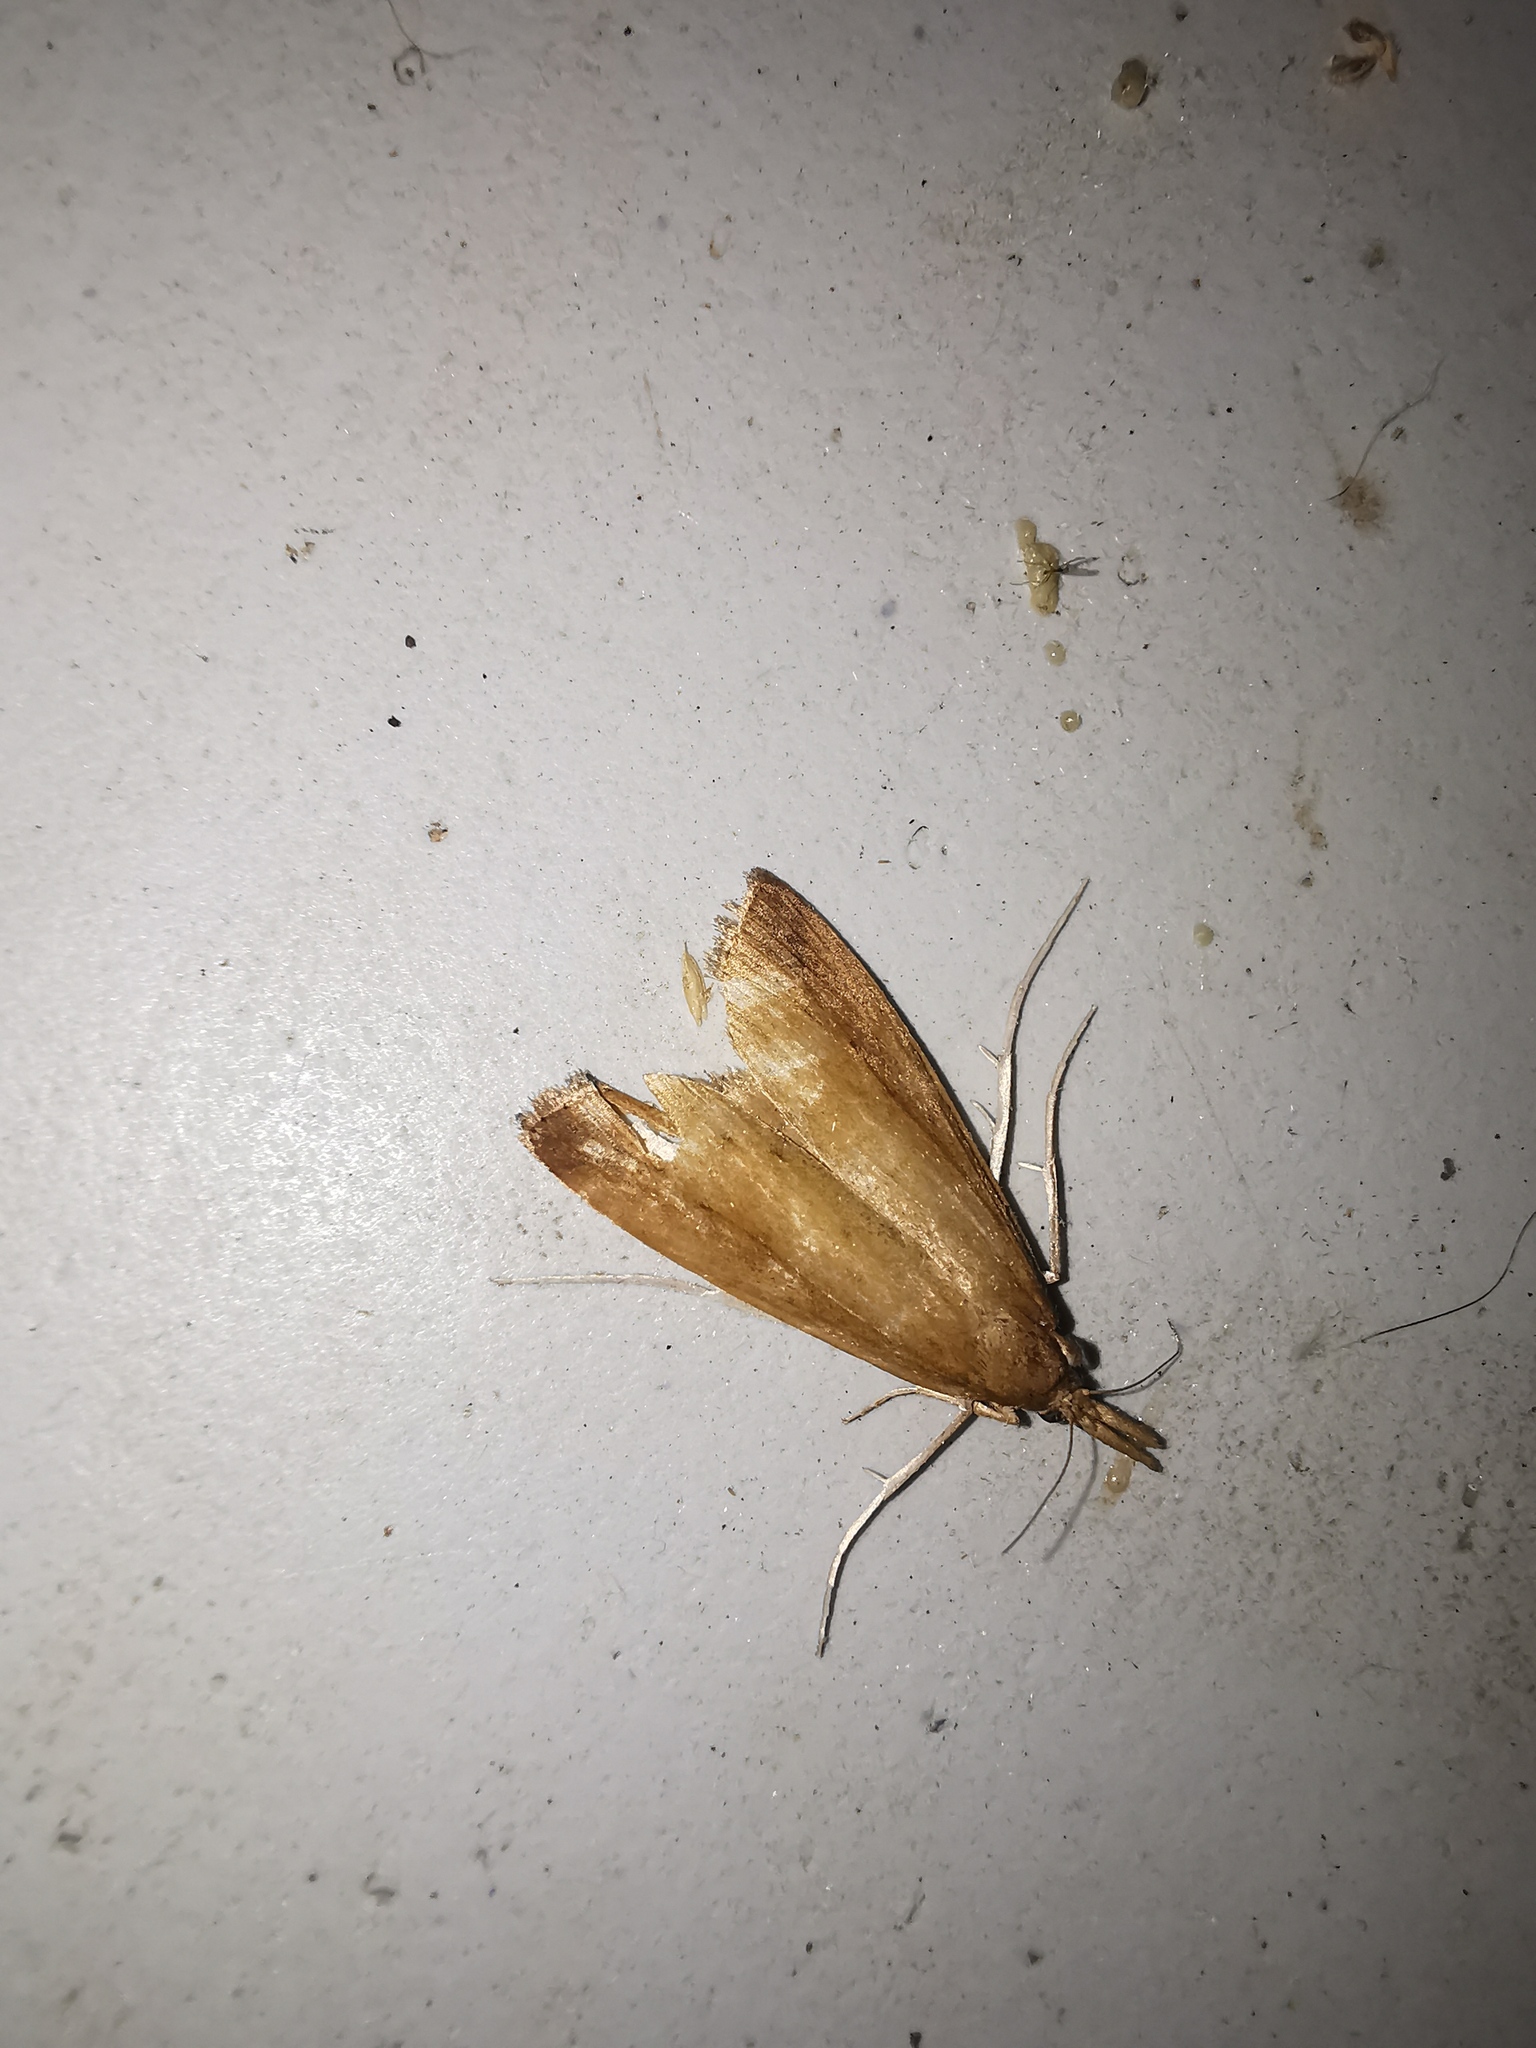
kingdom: Animalia
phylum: Arthropoda
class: Insecta
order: Lepidoptera
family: Crambidae
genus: Donacaula
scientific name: Donacaula forficella
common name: Pale water-veneer
